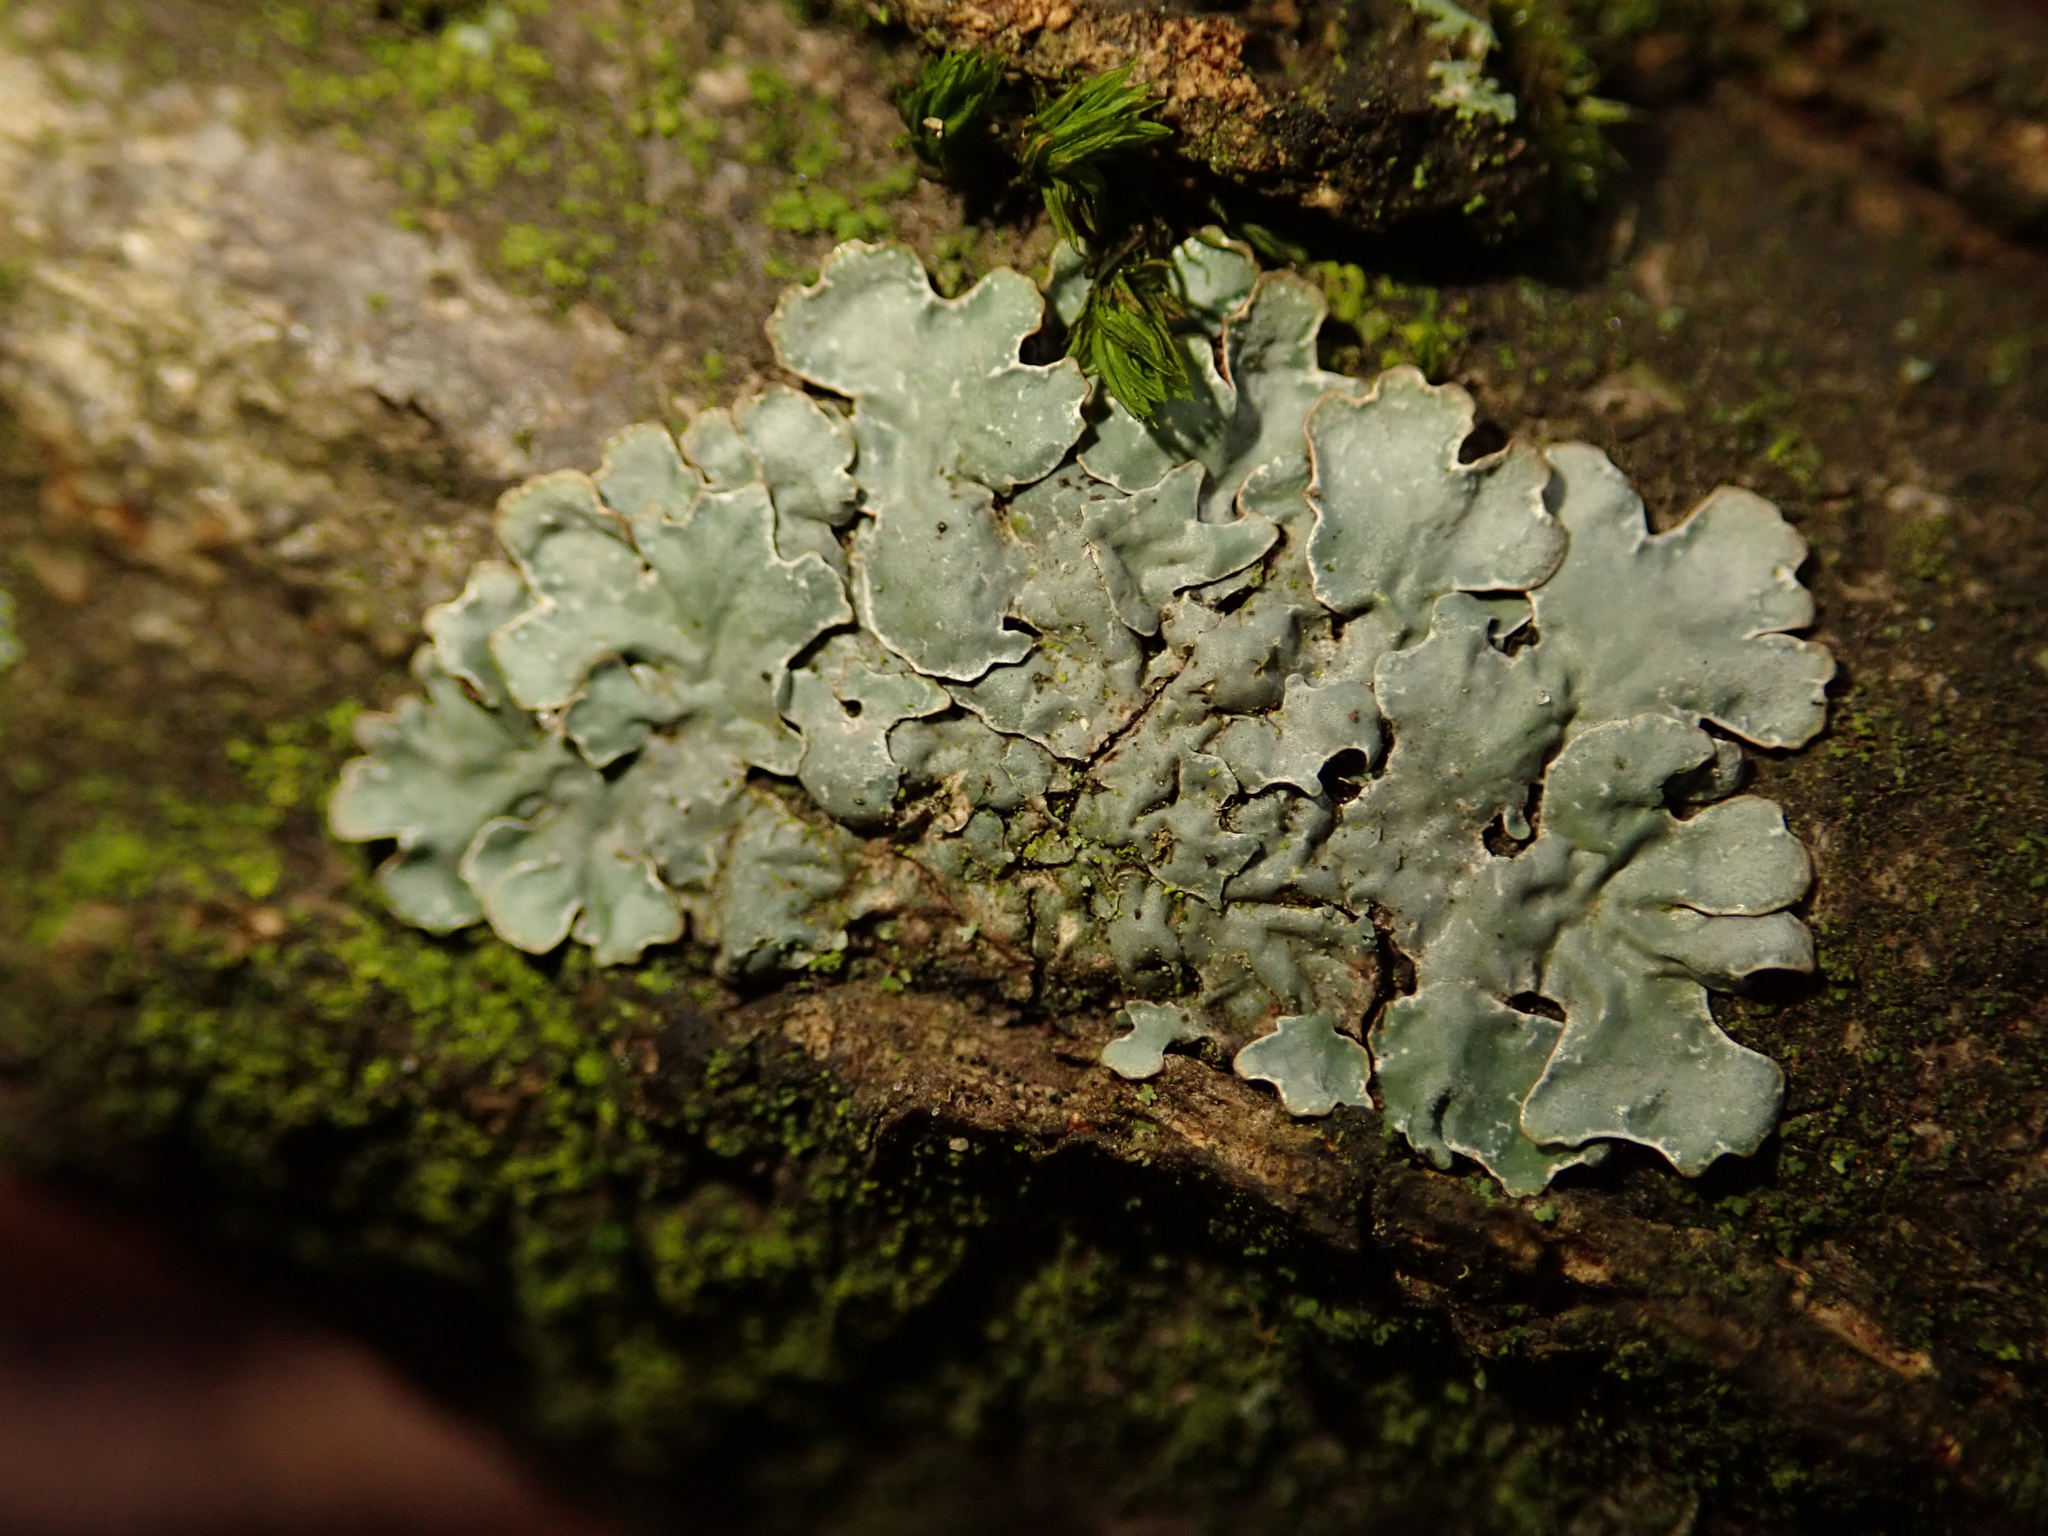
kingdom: Fungi
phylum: Ascomycota
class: Lecanoromycetes
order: Lecanorales
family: Parmeliaceae
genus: Parmelia
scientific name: Parmelia sulcata
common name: Netted shield lichen
